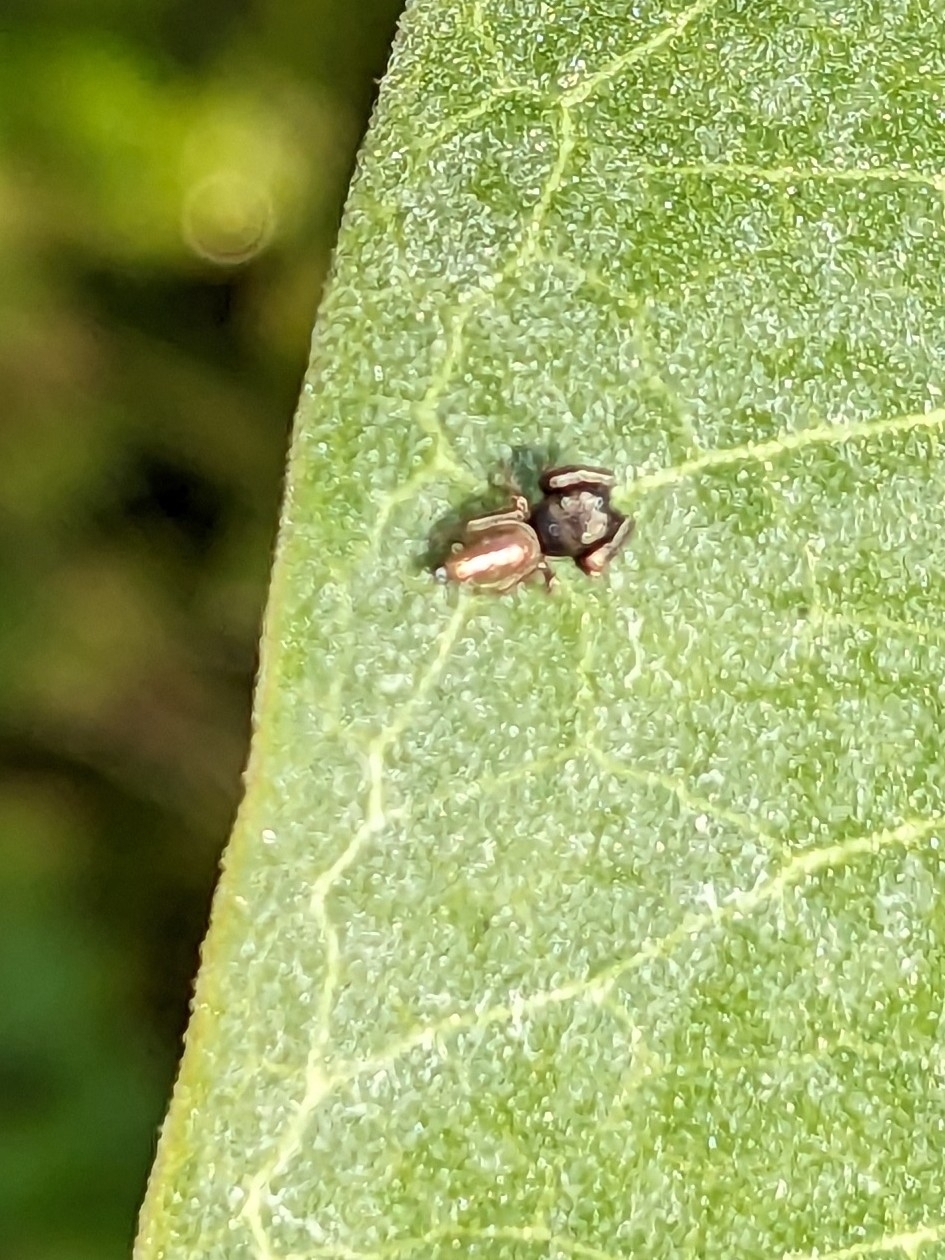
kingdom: Animalia
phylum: Arthropoda
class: Arachnida
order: Araneae
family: Salticidae
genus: Sassacus
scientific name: Sassacus vitis
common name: Jumping spiders
